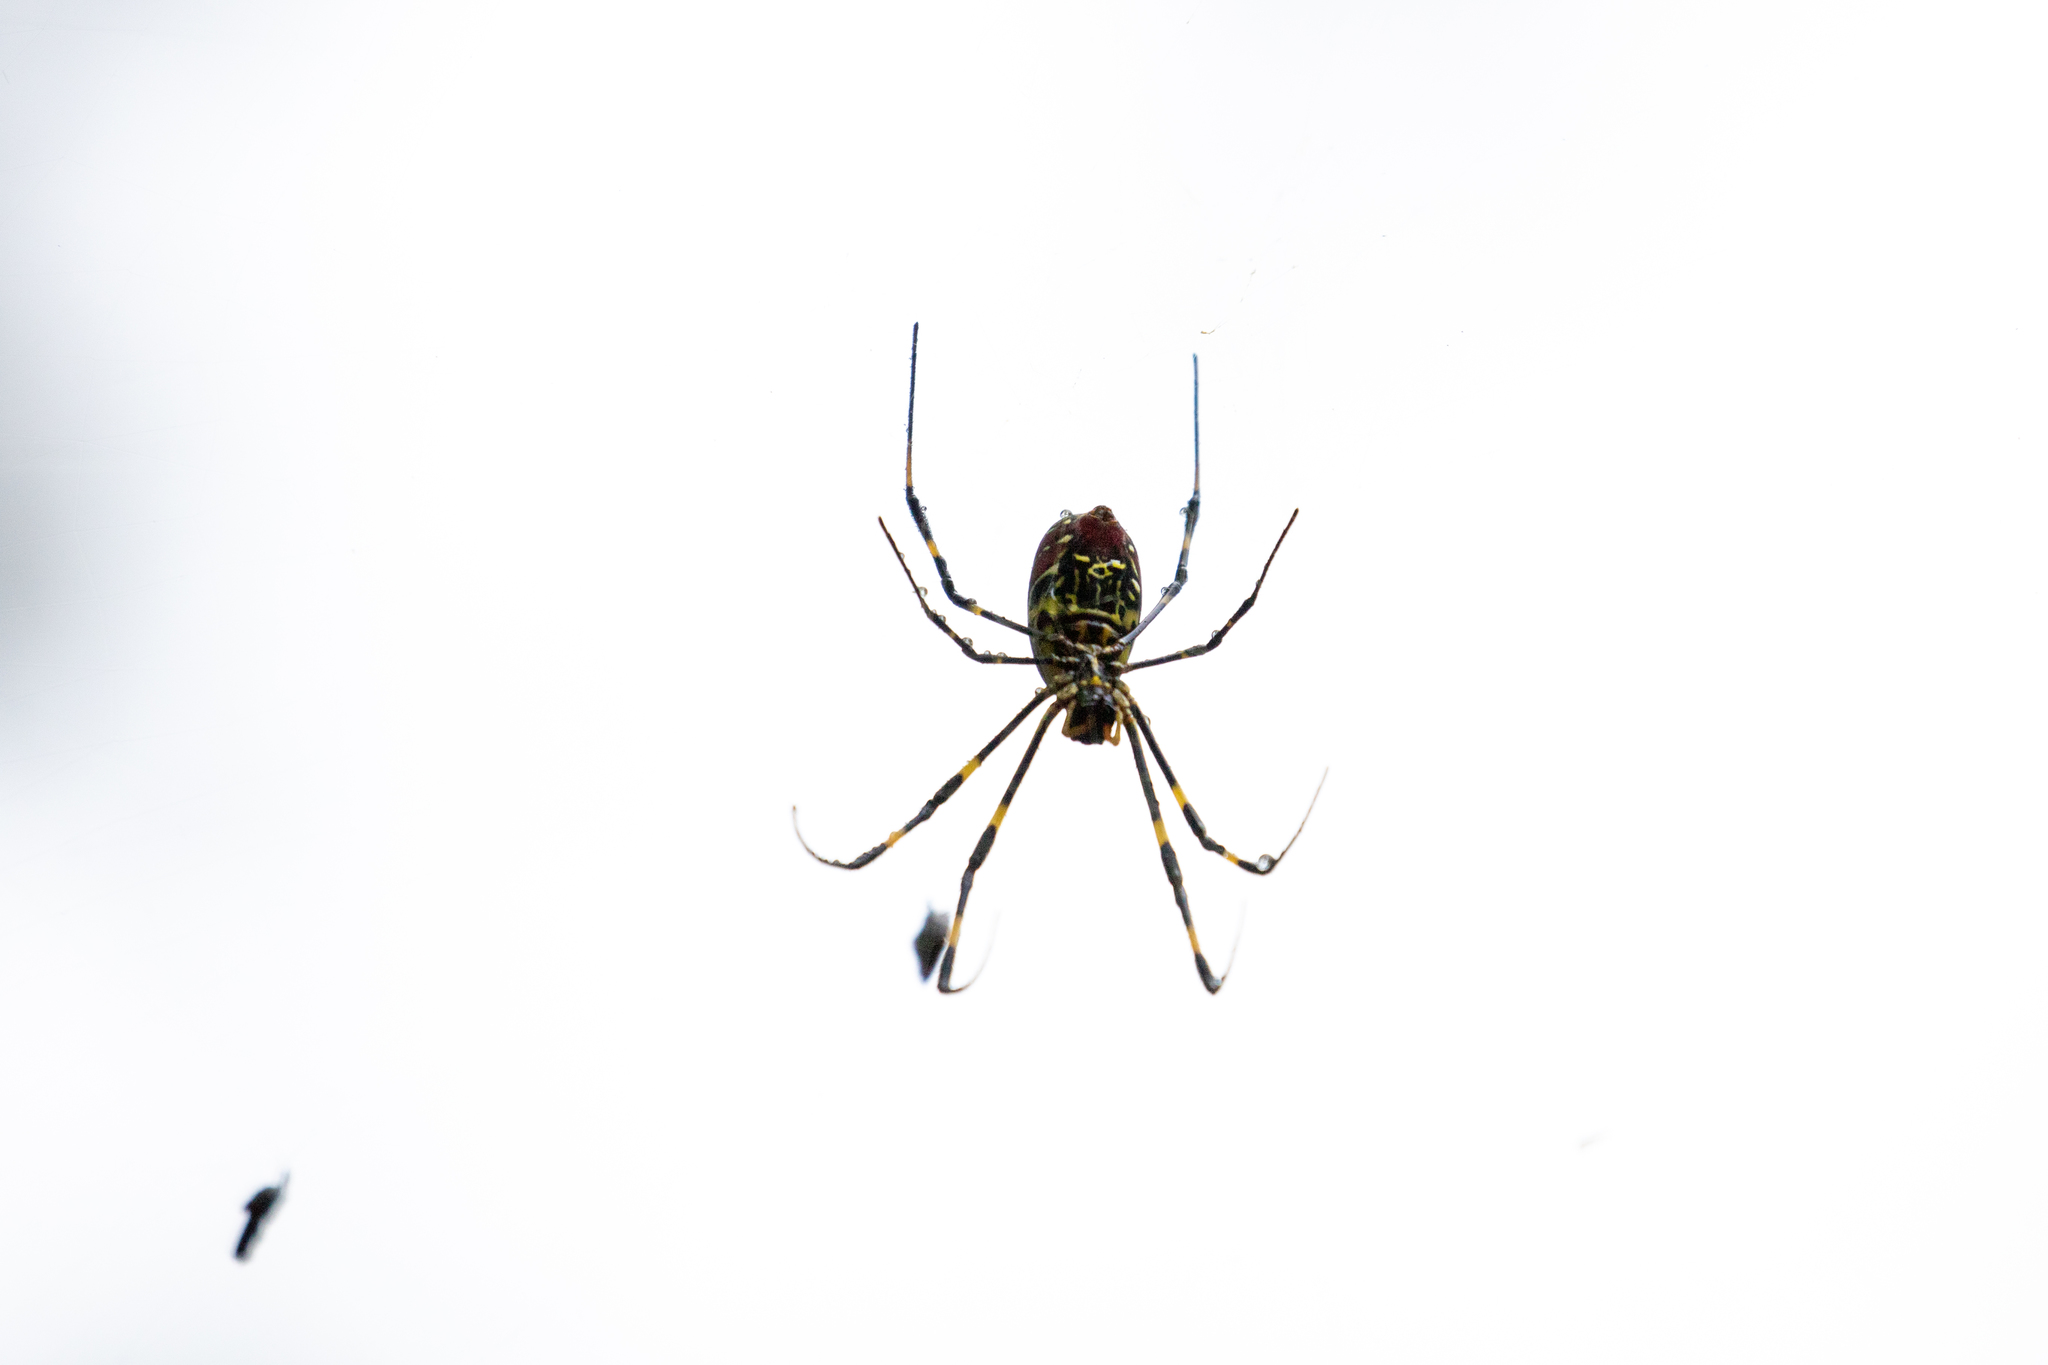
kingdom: Animalia
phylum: Arthropoda
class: Arachnida
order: Araneae
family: Araneidae
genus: Trichonephila
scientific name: Trichonephila clavata
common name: Jorō spider
